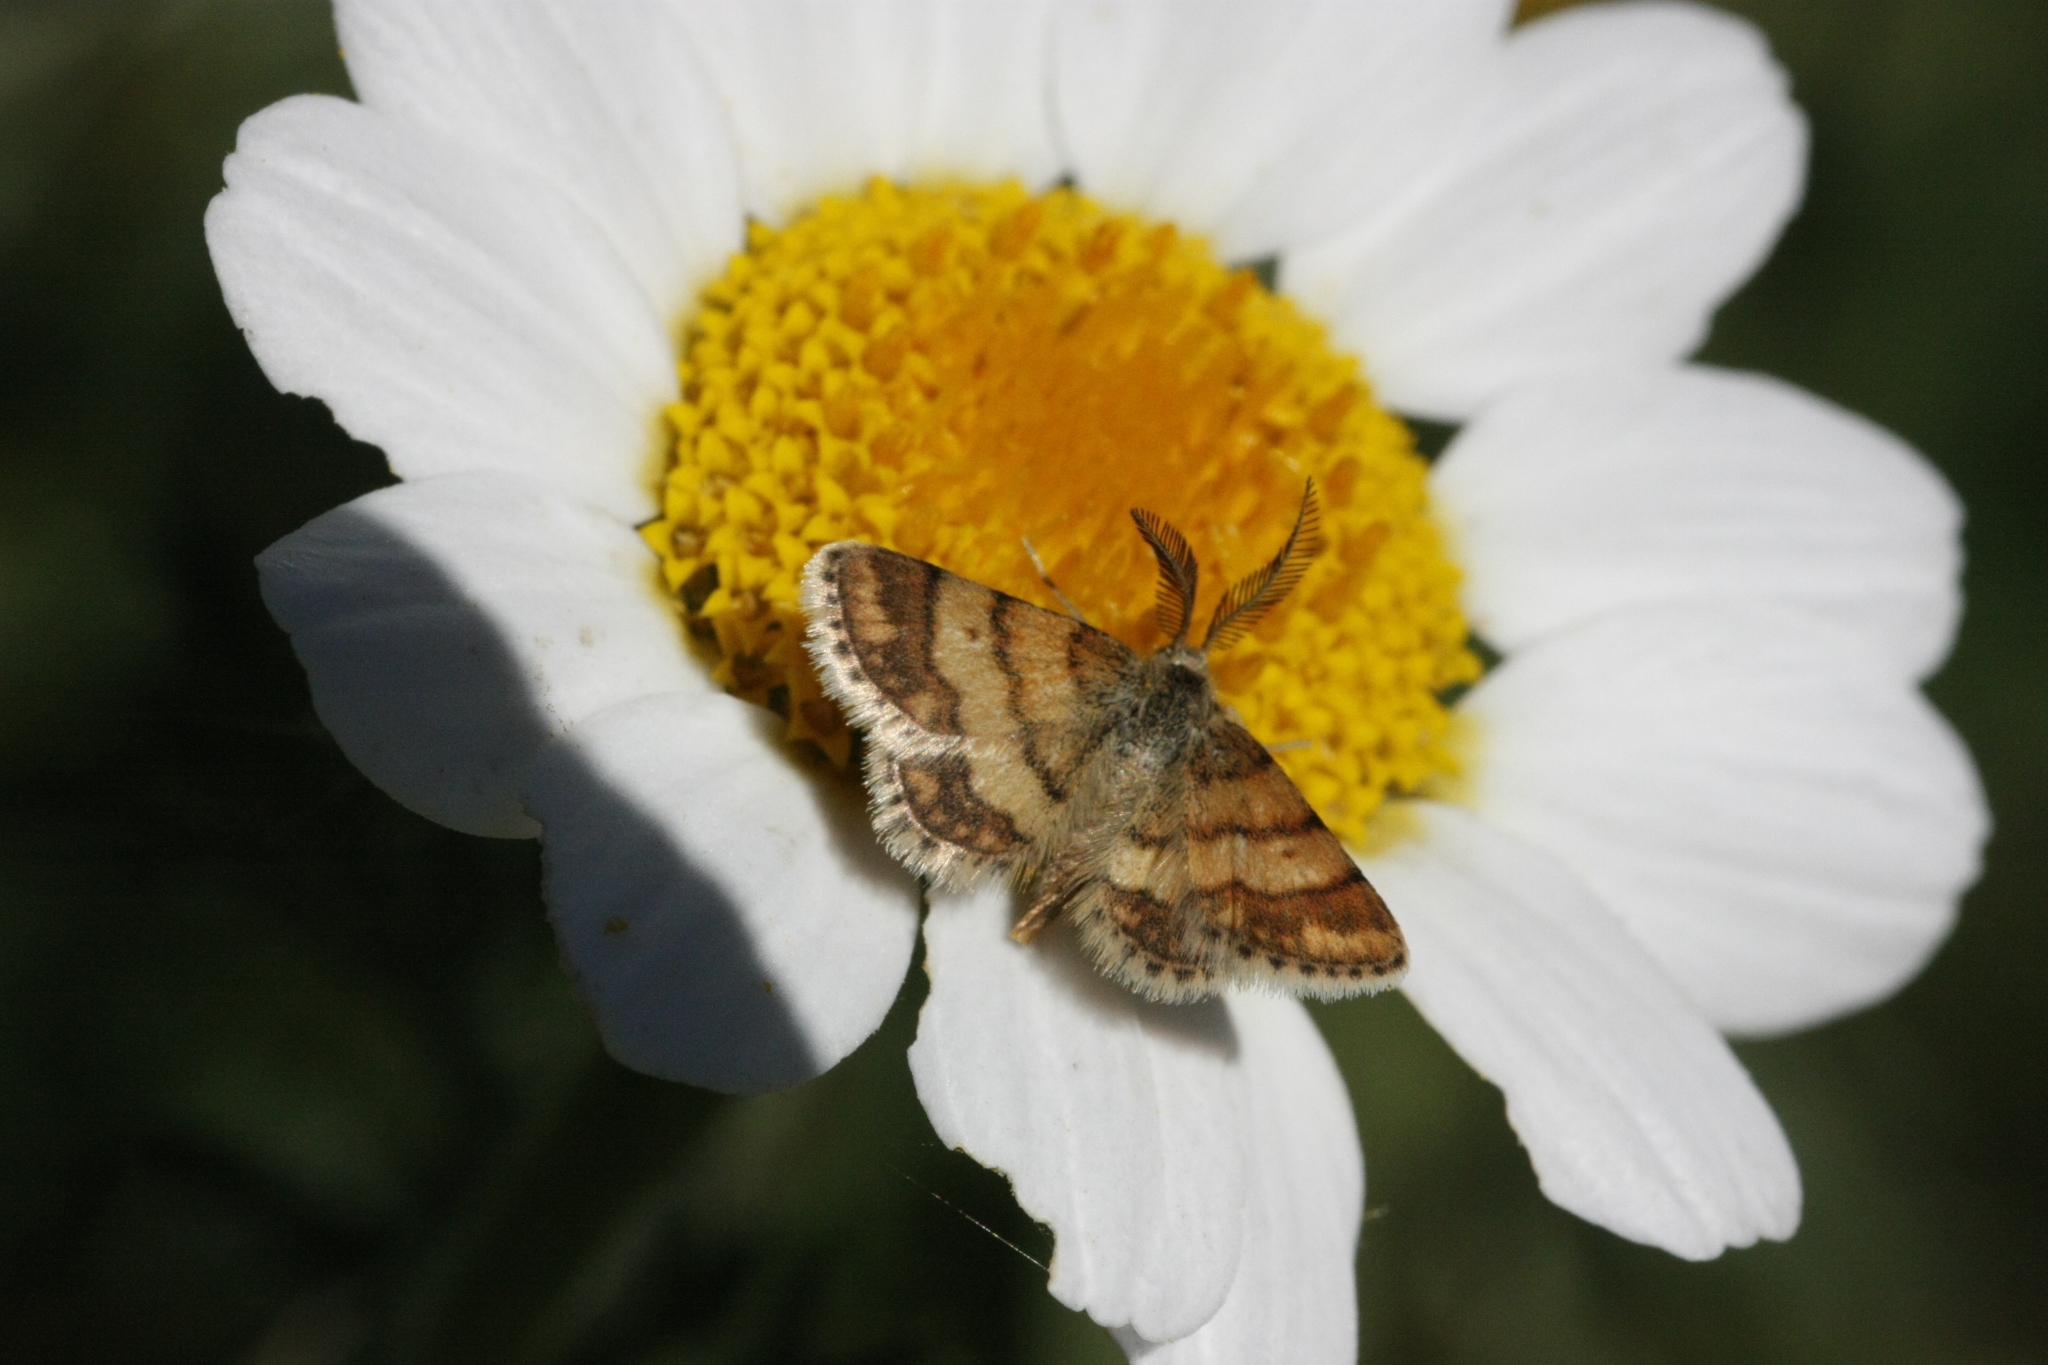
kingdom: Animalia
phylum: Arthropoda
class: Insecta
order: Lepidoptera
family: Geometridae
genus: Cleta
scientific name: Cleta ramosaria
